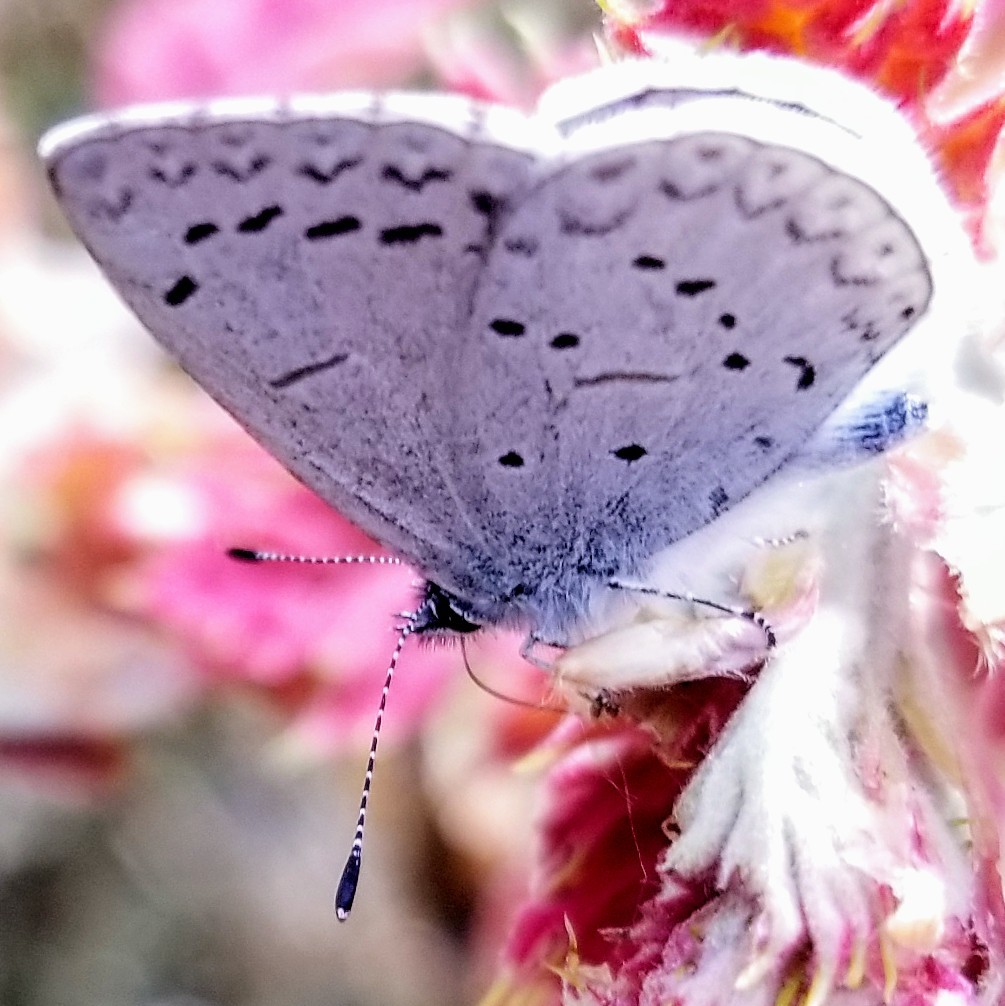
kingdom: Animalia
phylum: Arthropoda
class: Insecta
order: Lepidoptera
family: Lycaenidae
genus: Celastrina
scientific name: Celastrina ladon
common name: Spring azure
